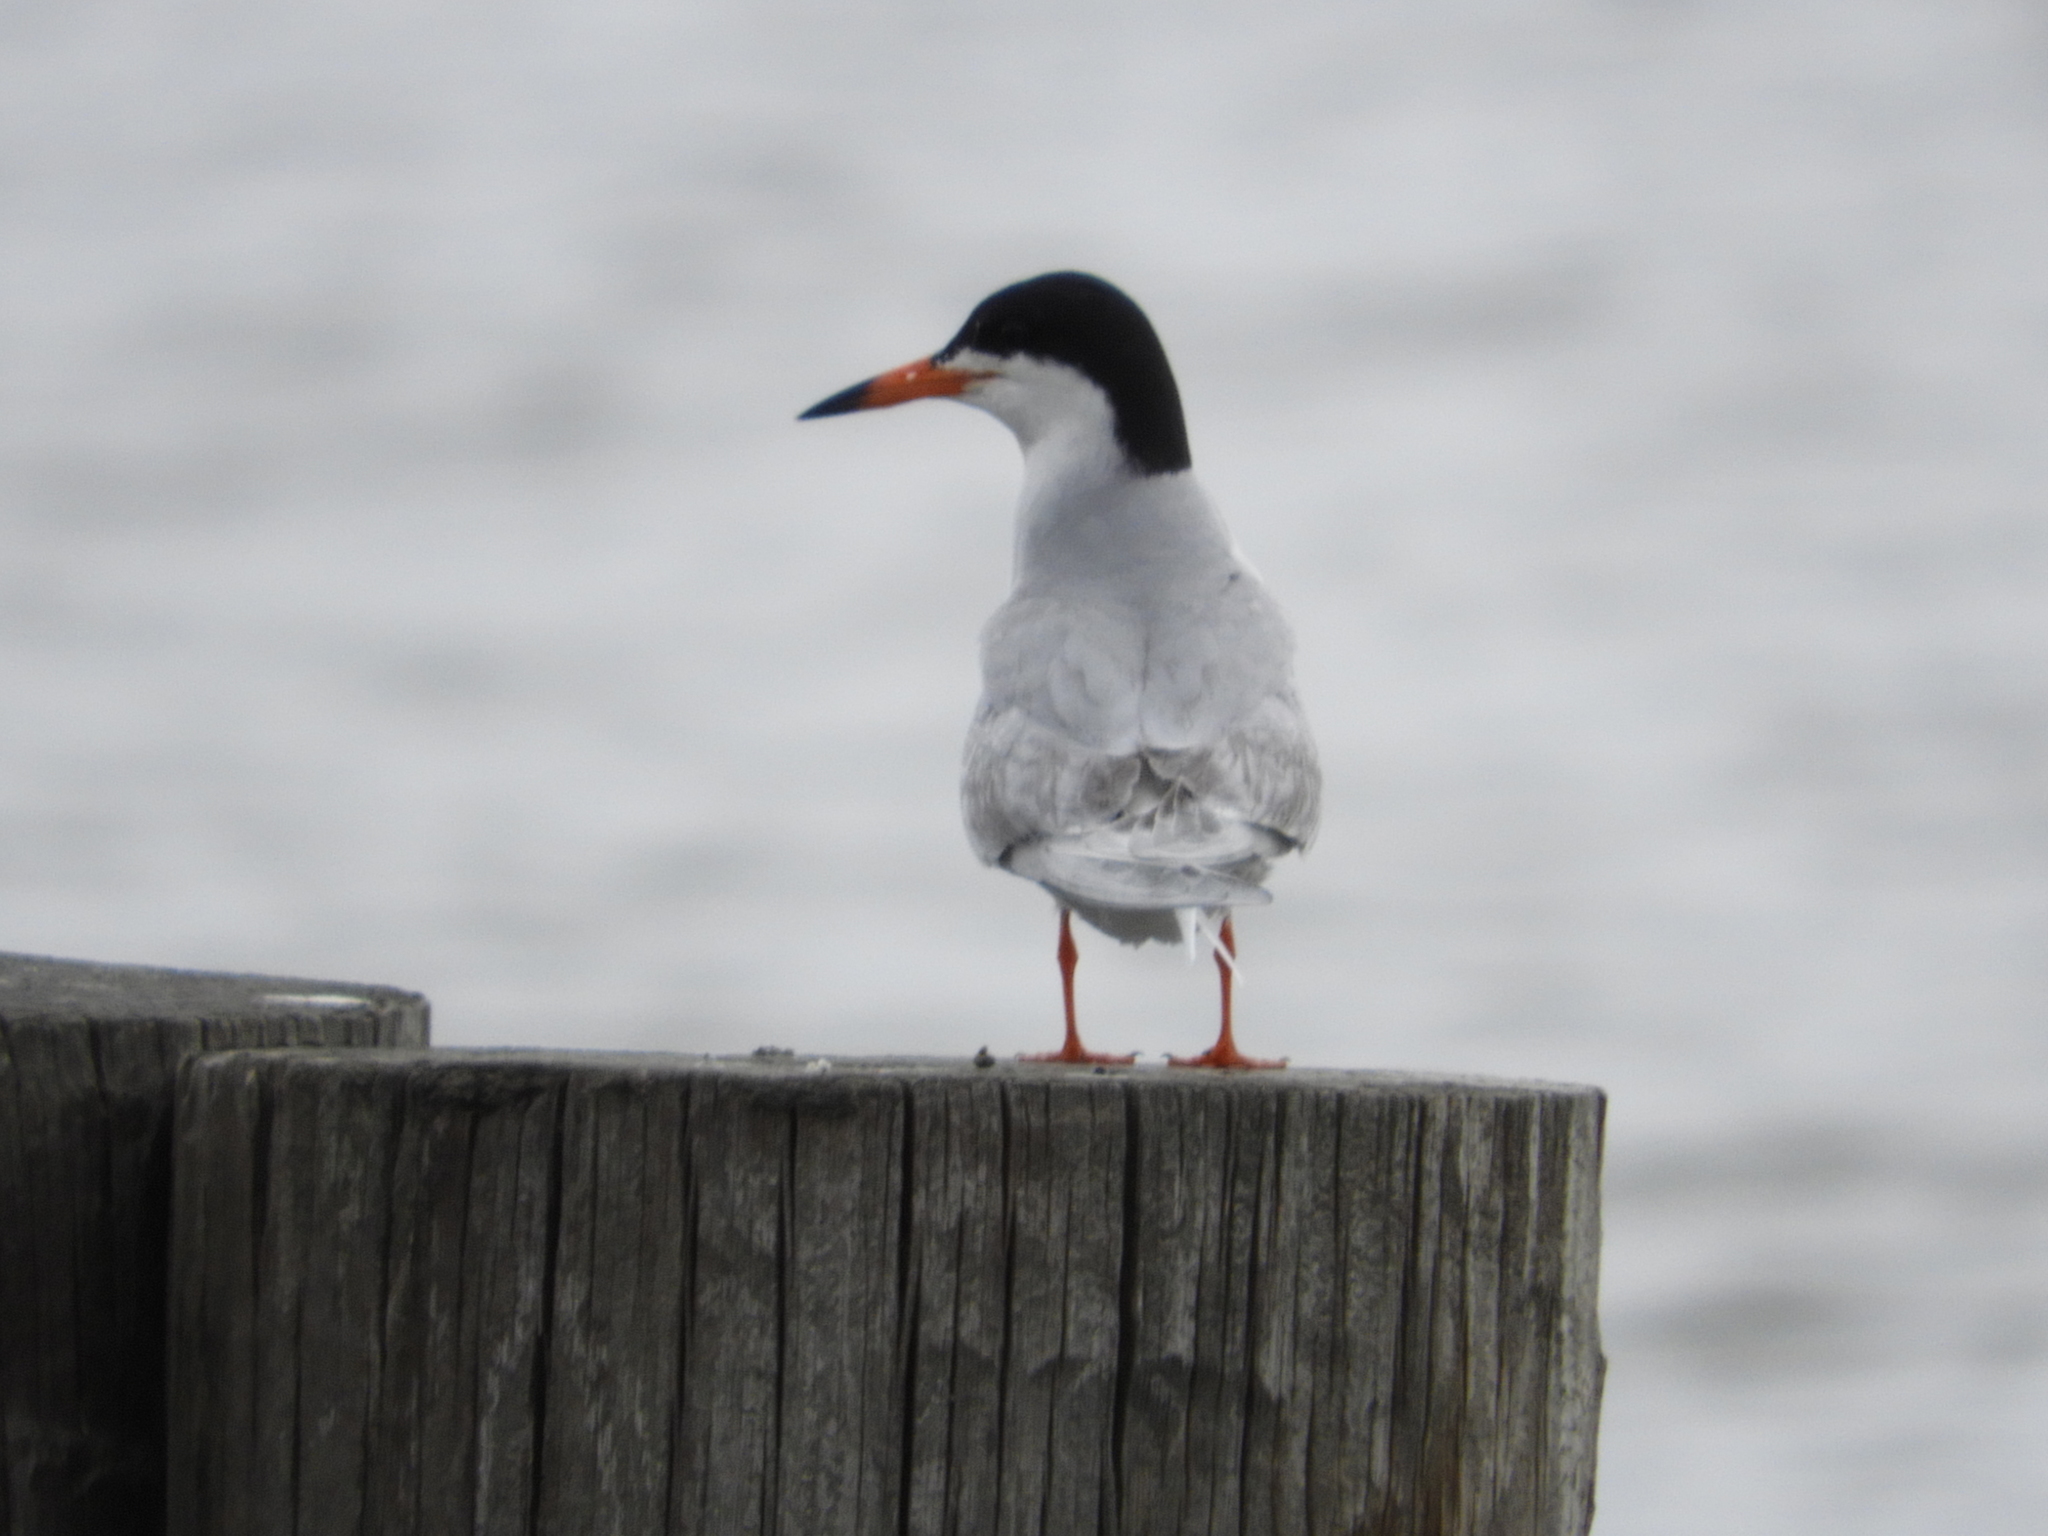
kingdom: Animalia
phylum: Chordata
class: Aves
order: Charadriiformes
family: Laridae
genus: Sterna
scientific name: Sterna forsteri
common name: Forster's tern
